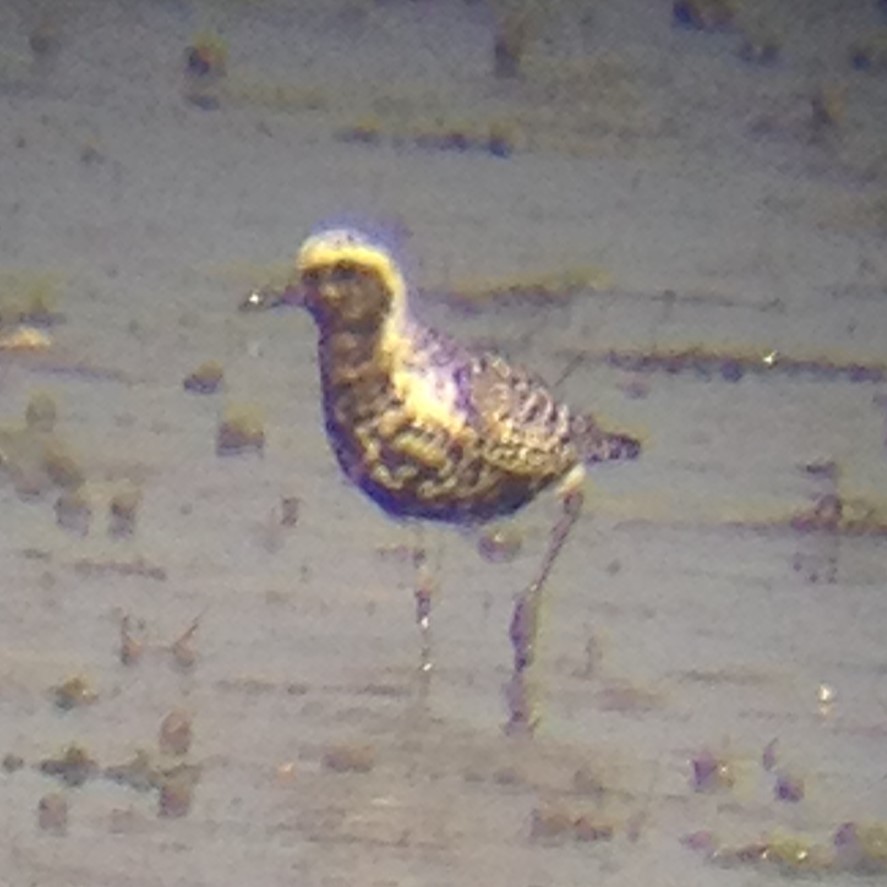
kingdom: Animalia
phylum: Chordata
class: Aves
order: Charadriiformes
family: Charadriidae
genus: Pluvialis
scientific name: Pluvialis squatarola
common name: Grey plover
